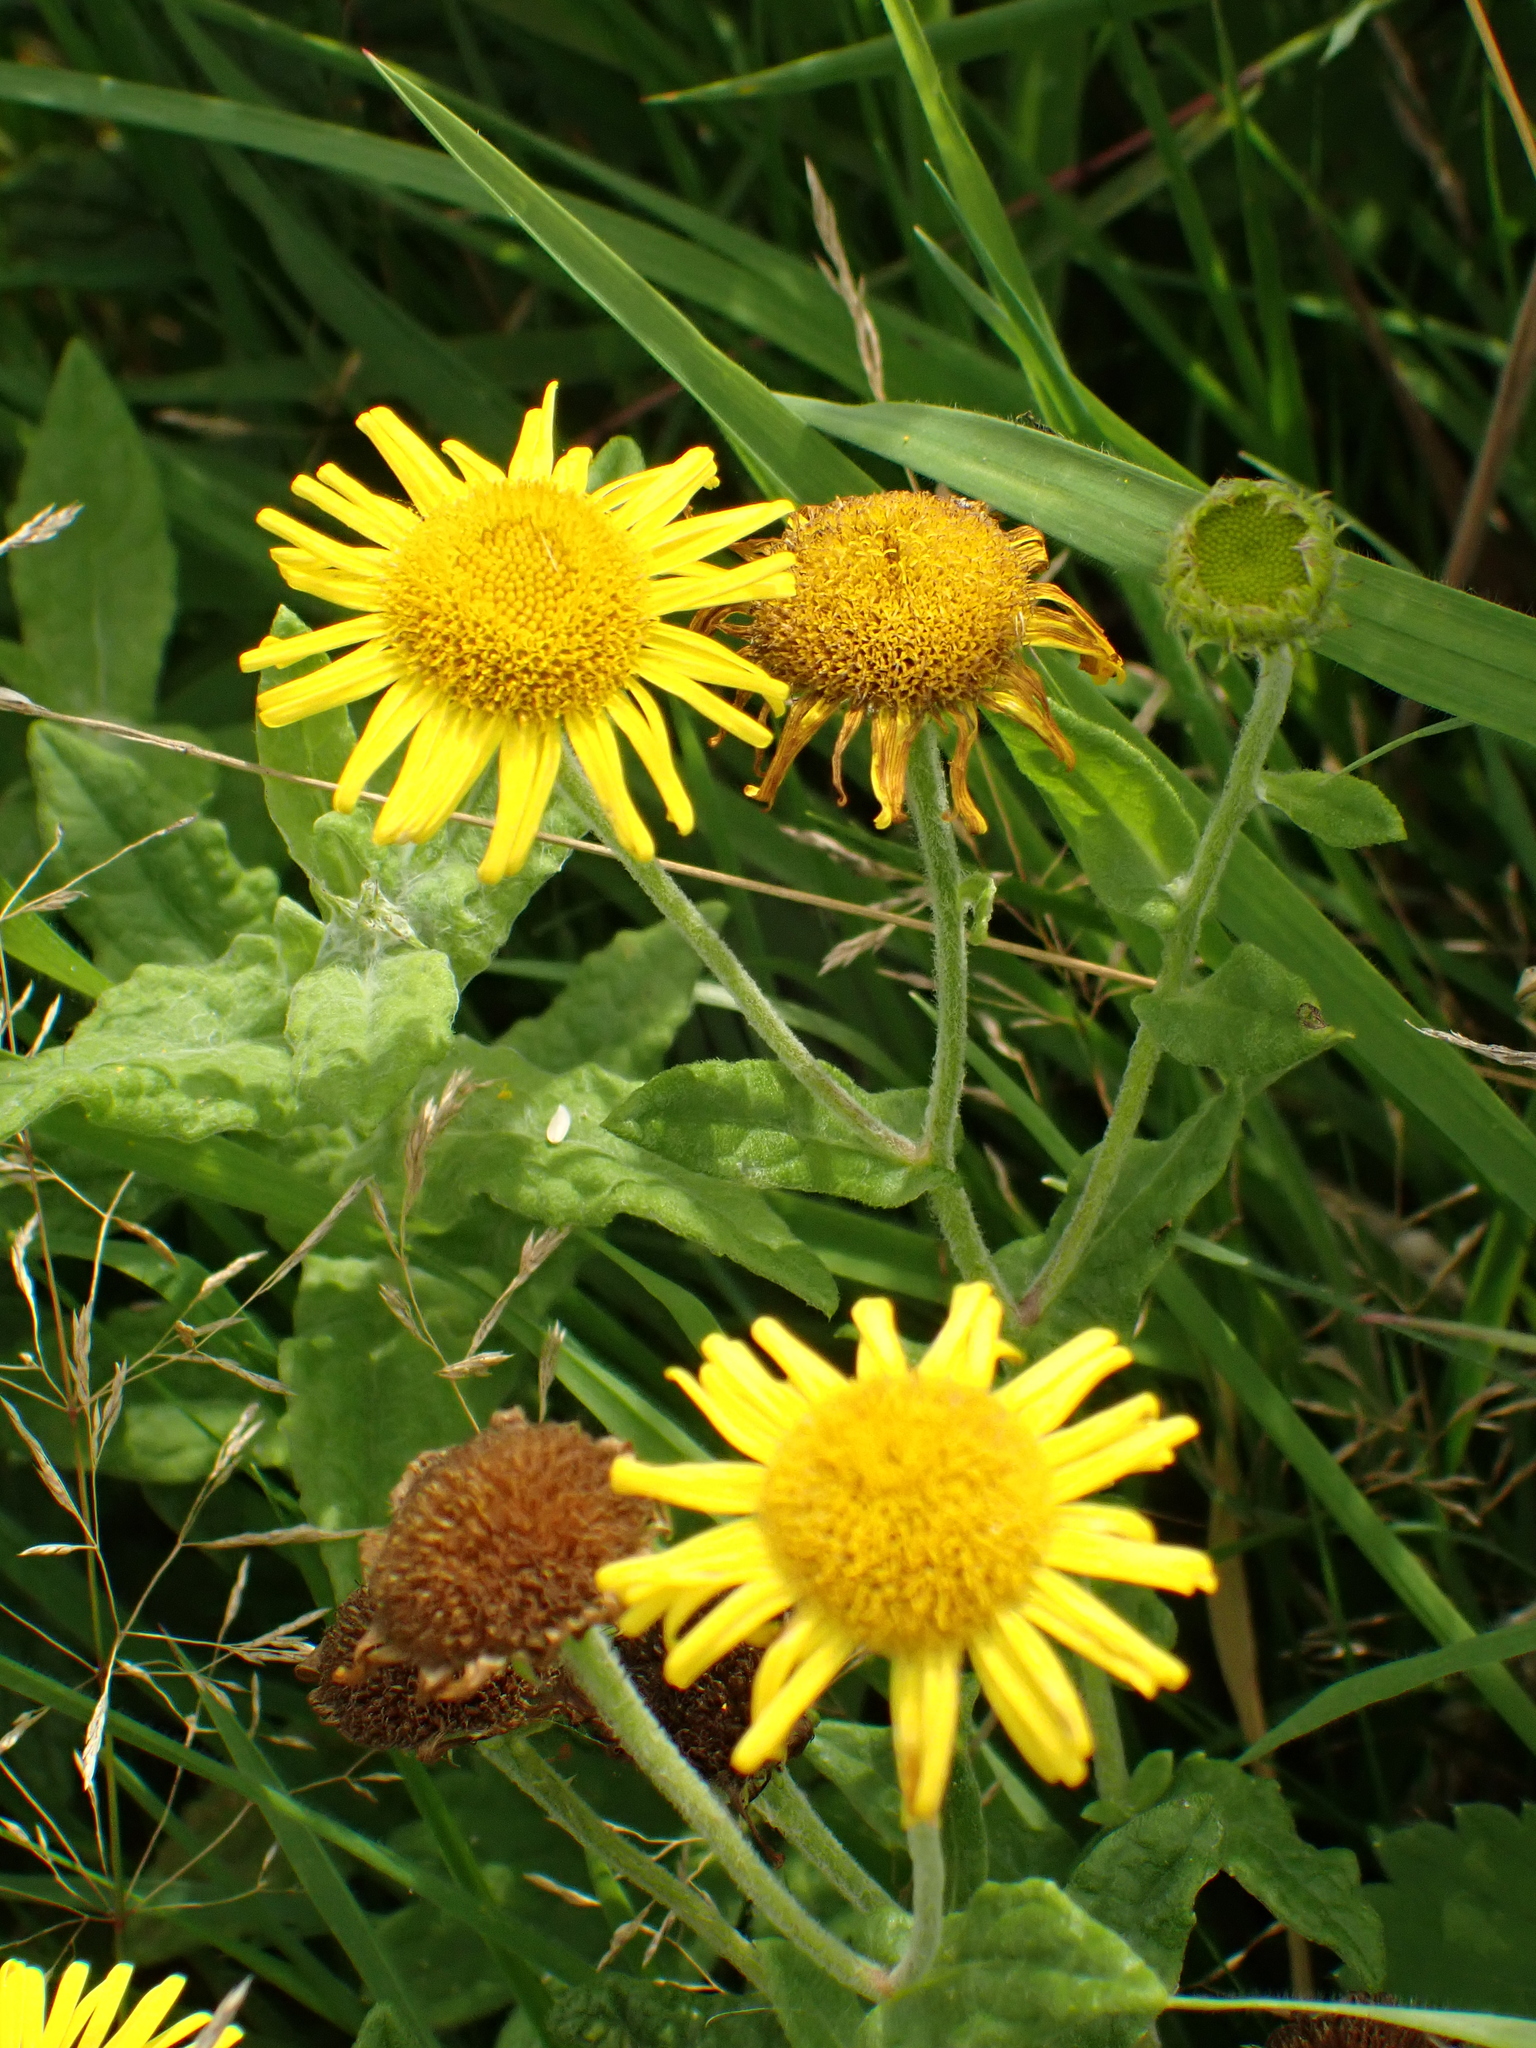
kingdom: Plantae
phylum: Tracheophyta
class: Magnoliopsida
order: Asterales
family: Asteraceae
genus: Pulicaria
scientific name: Pulicaria dysenterica
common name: Common fleabane
